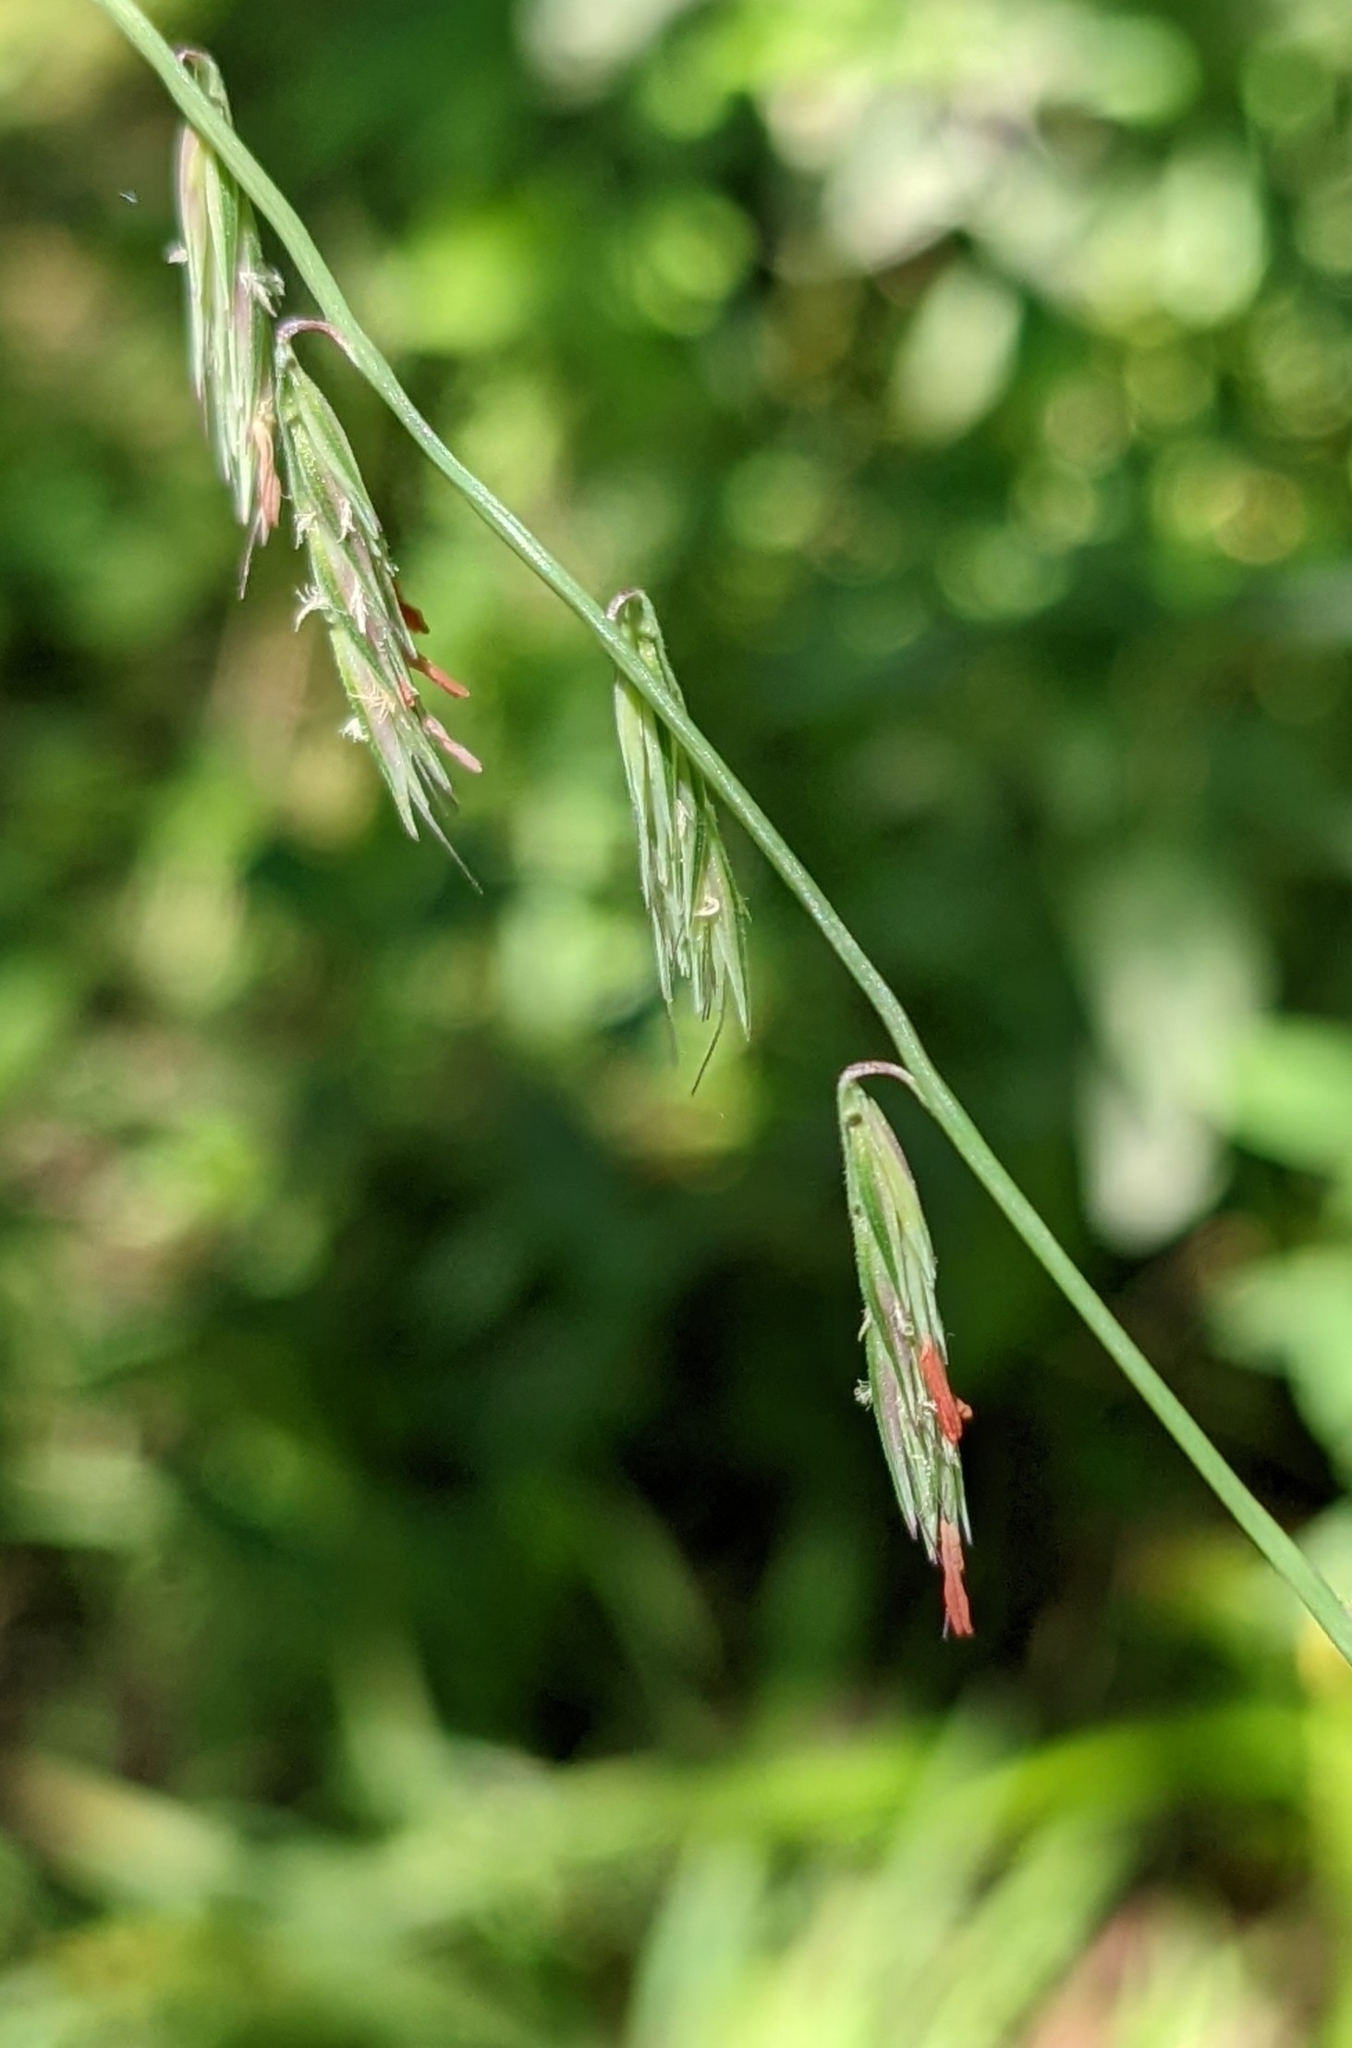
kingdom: Plantae
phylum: Tracheophyta
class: Liliopsida
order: Poales
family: Poaceae
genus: Bouteloua
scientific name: Bouteloua curtipendula
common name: Side-oats grama
